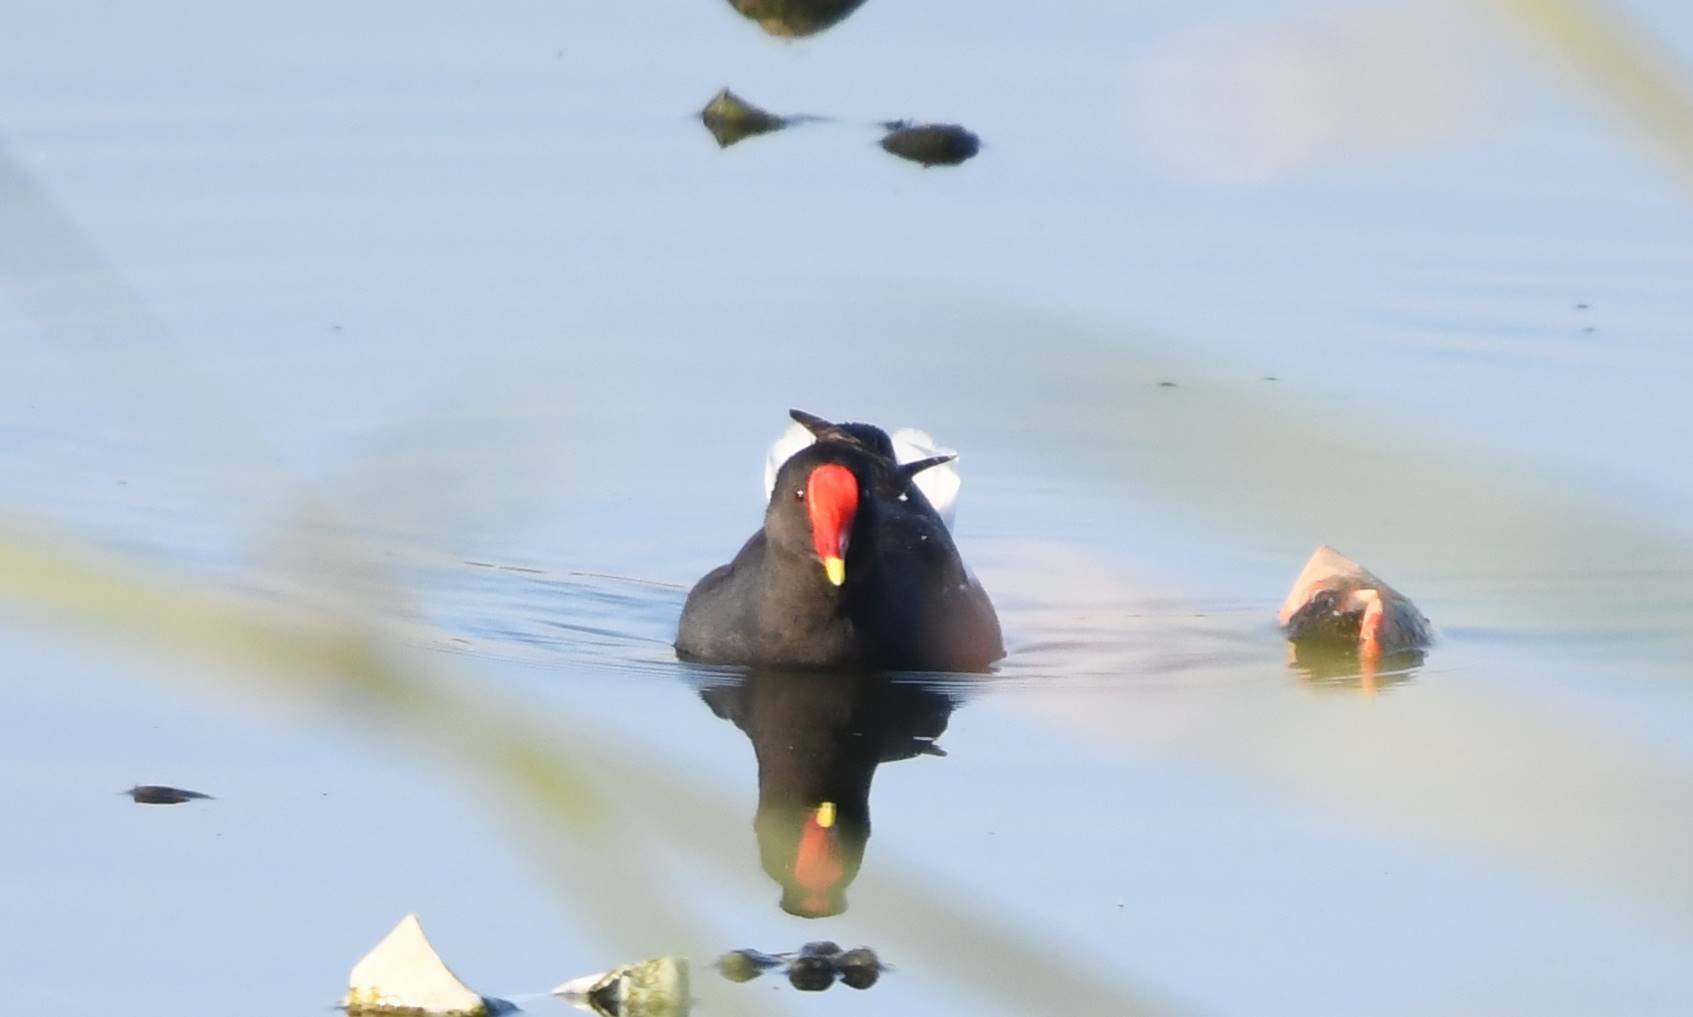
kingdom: Animalia
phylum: Chordata
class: Aves
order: Gruiformes
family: Rallidae
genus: Gallinula
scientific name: Gallinula chloropus
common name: Common moorhen
